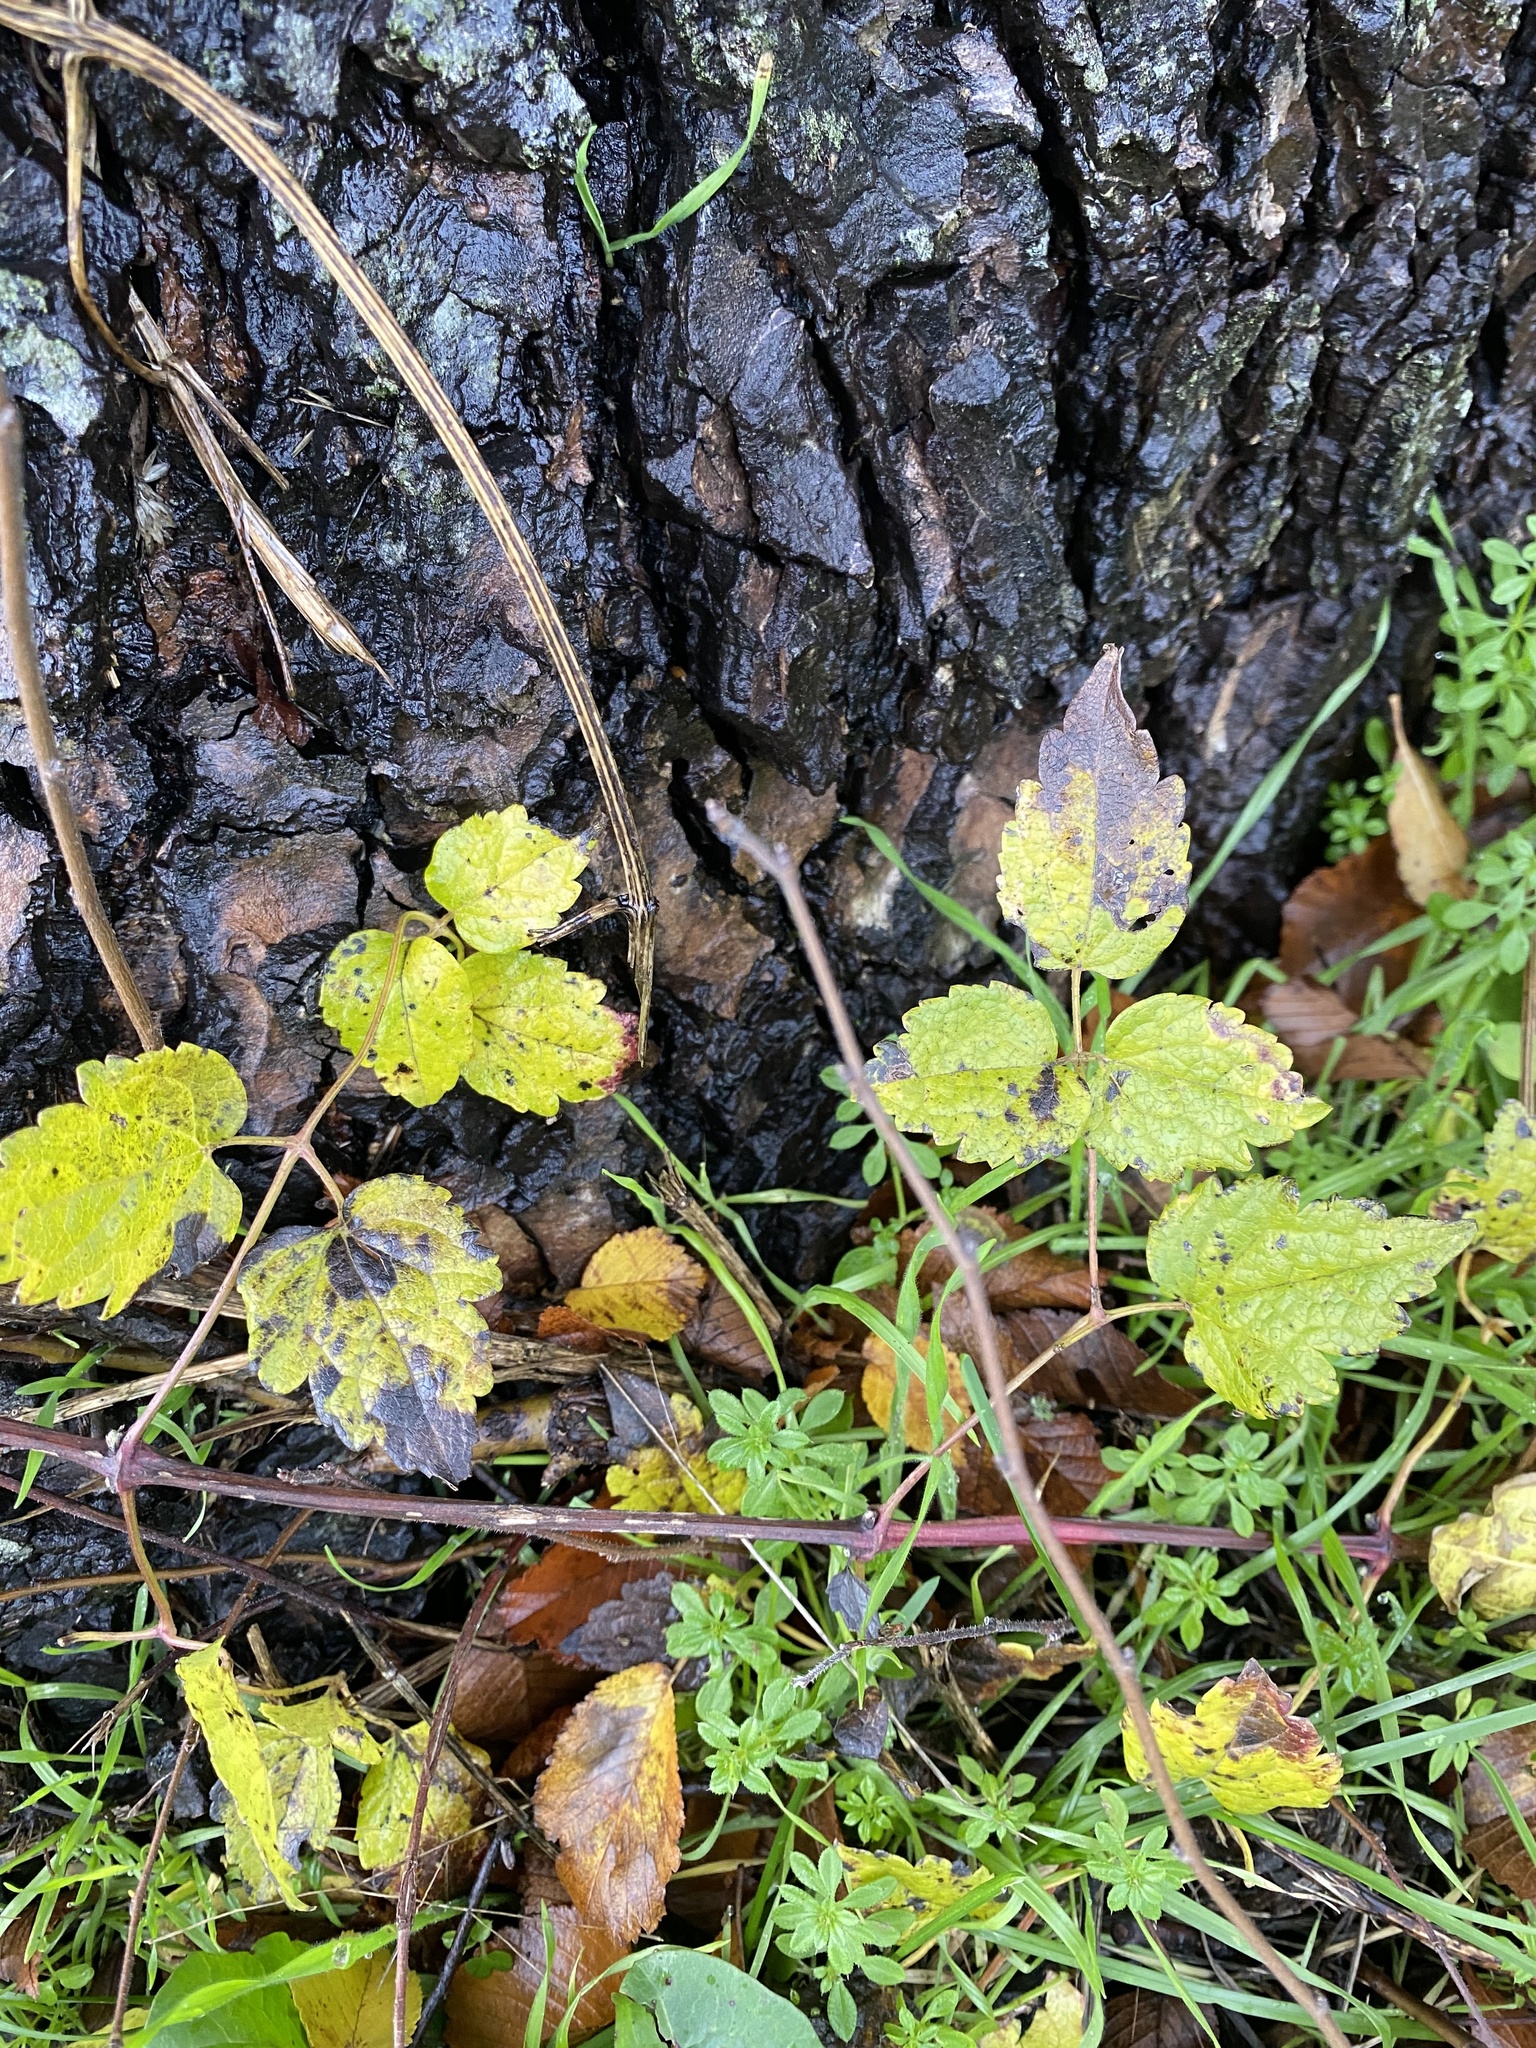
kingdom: Plantae
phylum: Tracheophyta
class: Magnoliopsida
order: Ranunculales
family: Ranunculaceae
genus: Clematis
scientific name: Clematis vitalba
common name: Evergreen clematis
